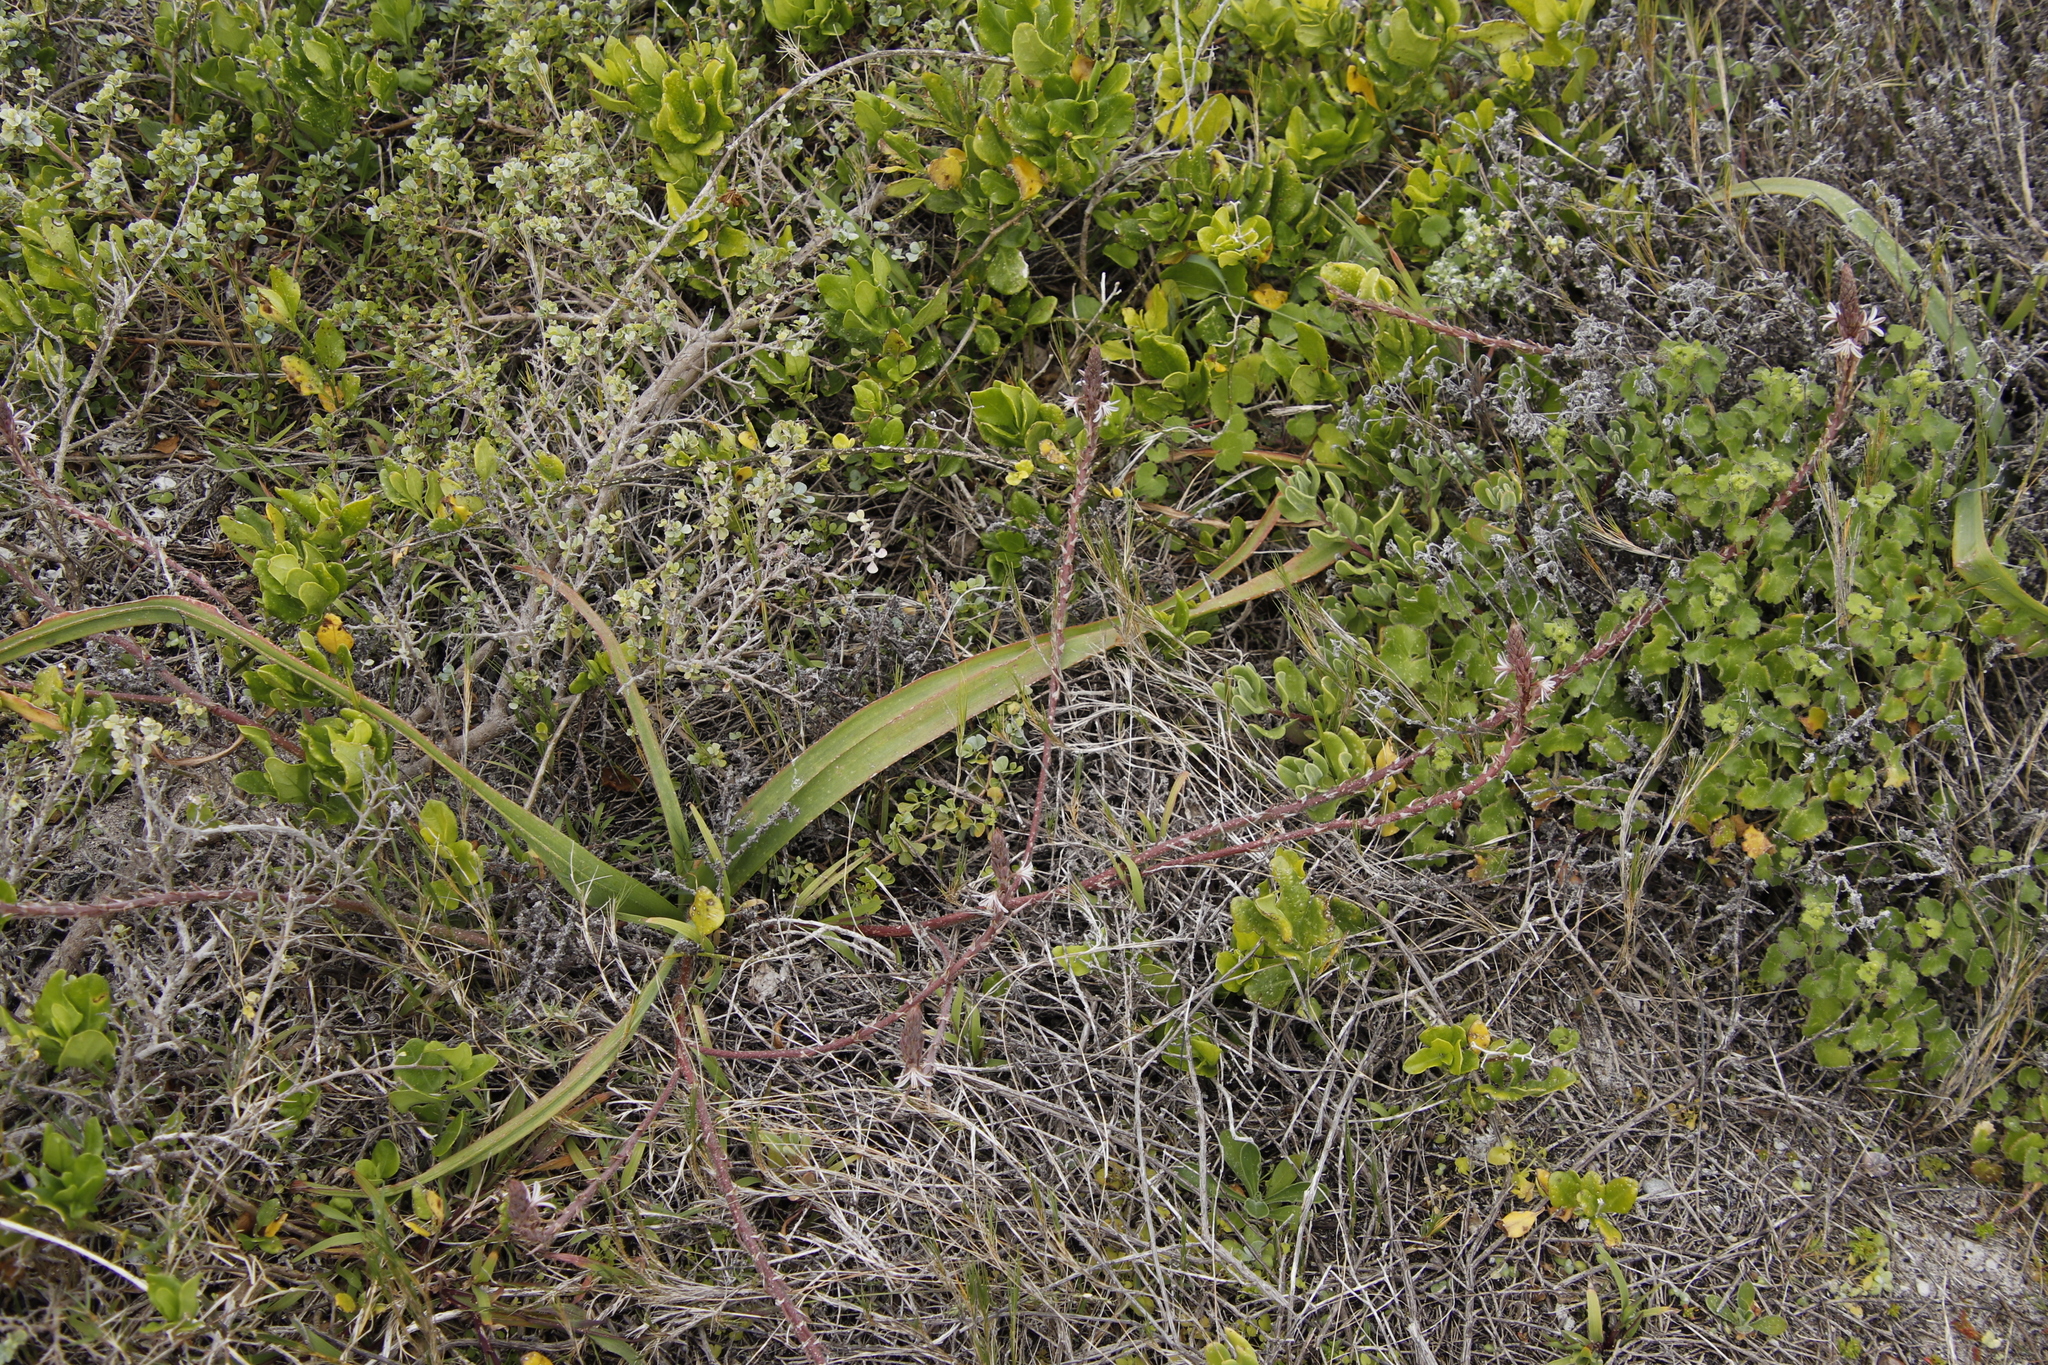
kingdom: Plantae
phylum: Tracheophyta
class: Liliopsida
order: Asparagales
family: Asphodelaceae
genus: Trachyandra
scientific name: Trachyandra ciliata
